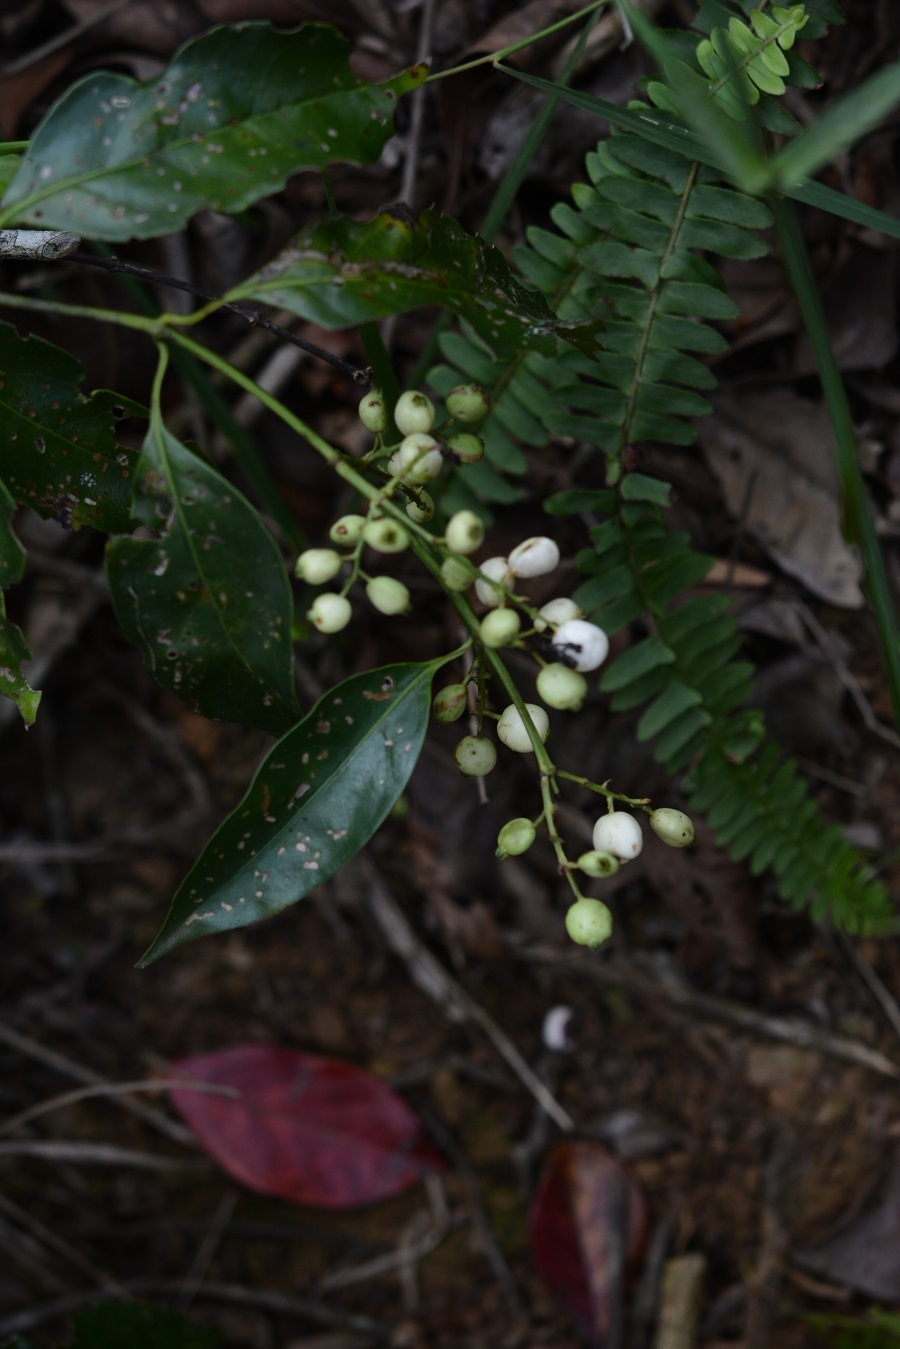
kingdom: Plantae
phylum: Tracheophyta
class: Magnoliopsida
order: Gentianales
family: Rubiaceae
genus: Chiococca
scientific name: Chiococca phaenostemon
